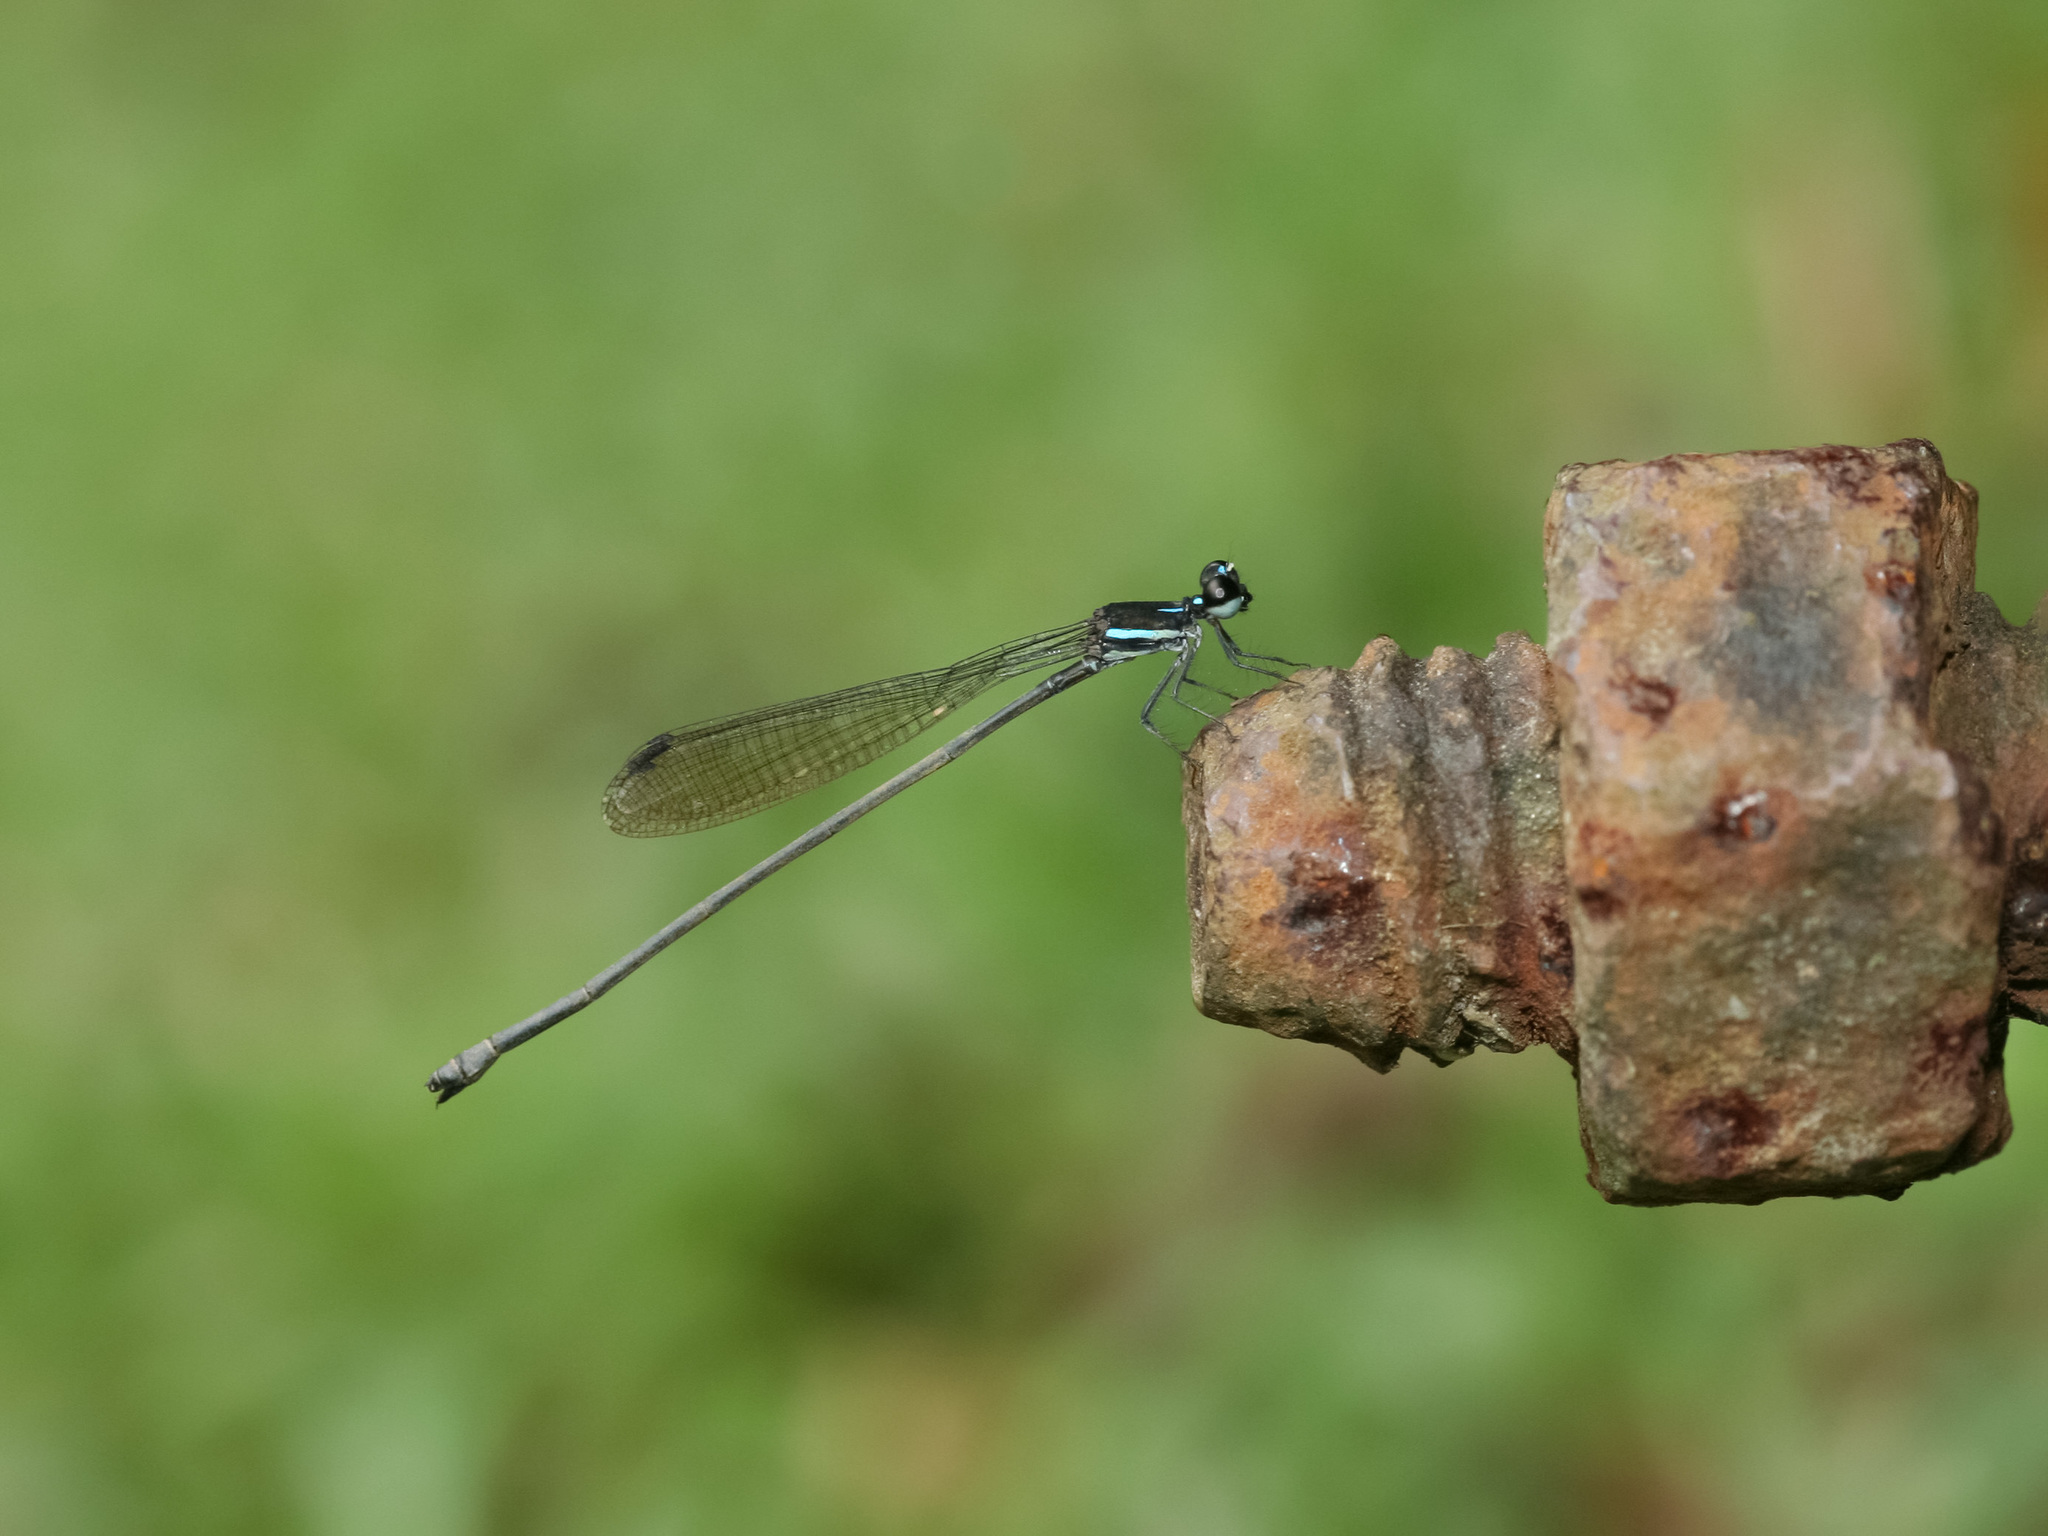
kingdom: Animalia
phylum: Arthropoda
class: Insecta
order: Odonata
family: Platycnemididae
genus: Prodasineura
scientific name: Prodasineura collaris
